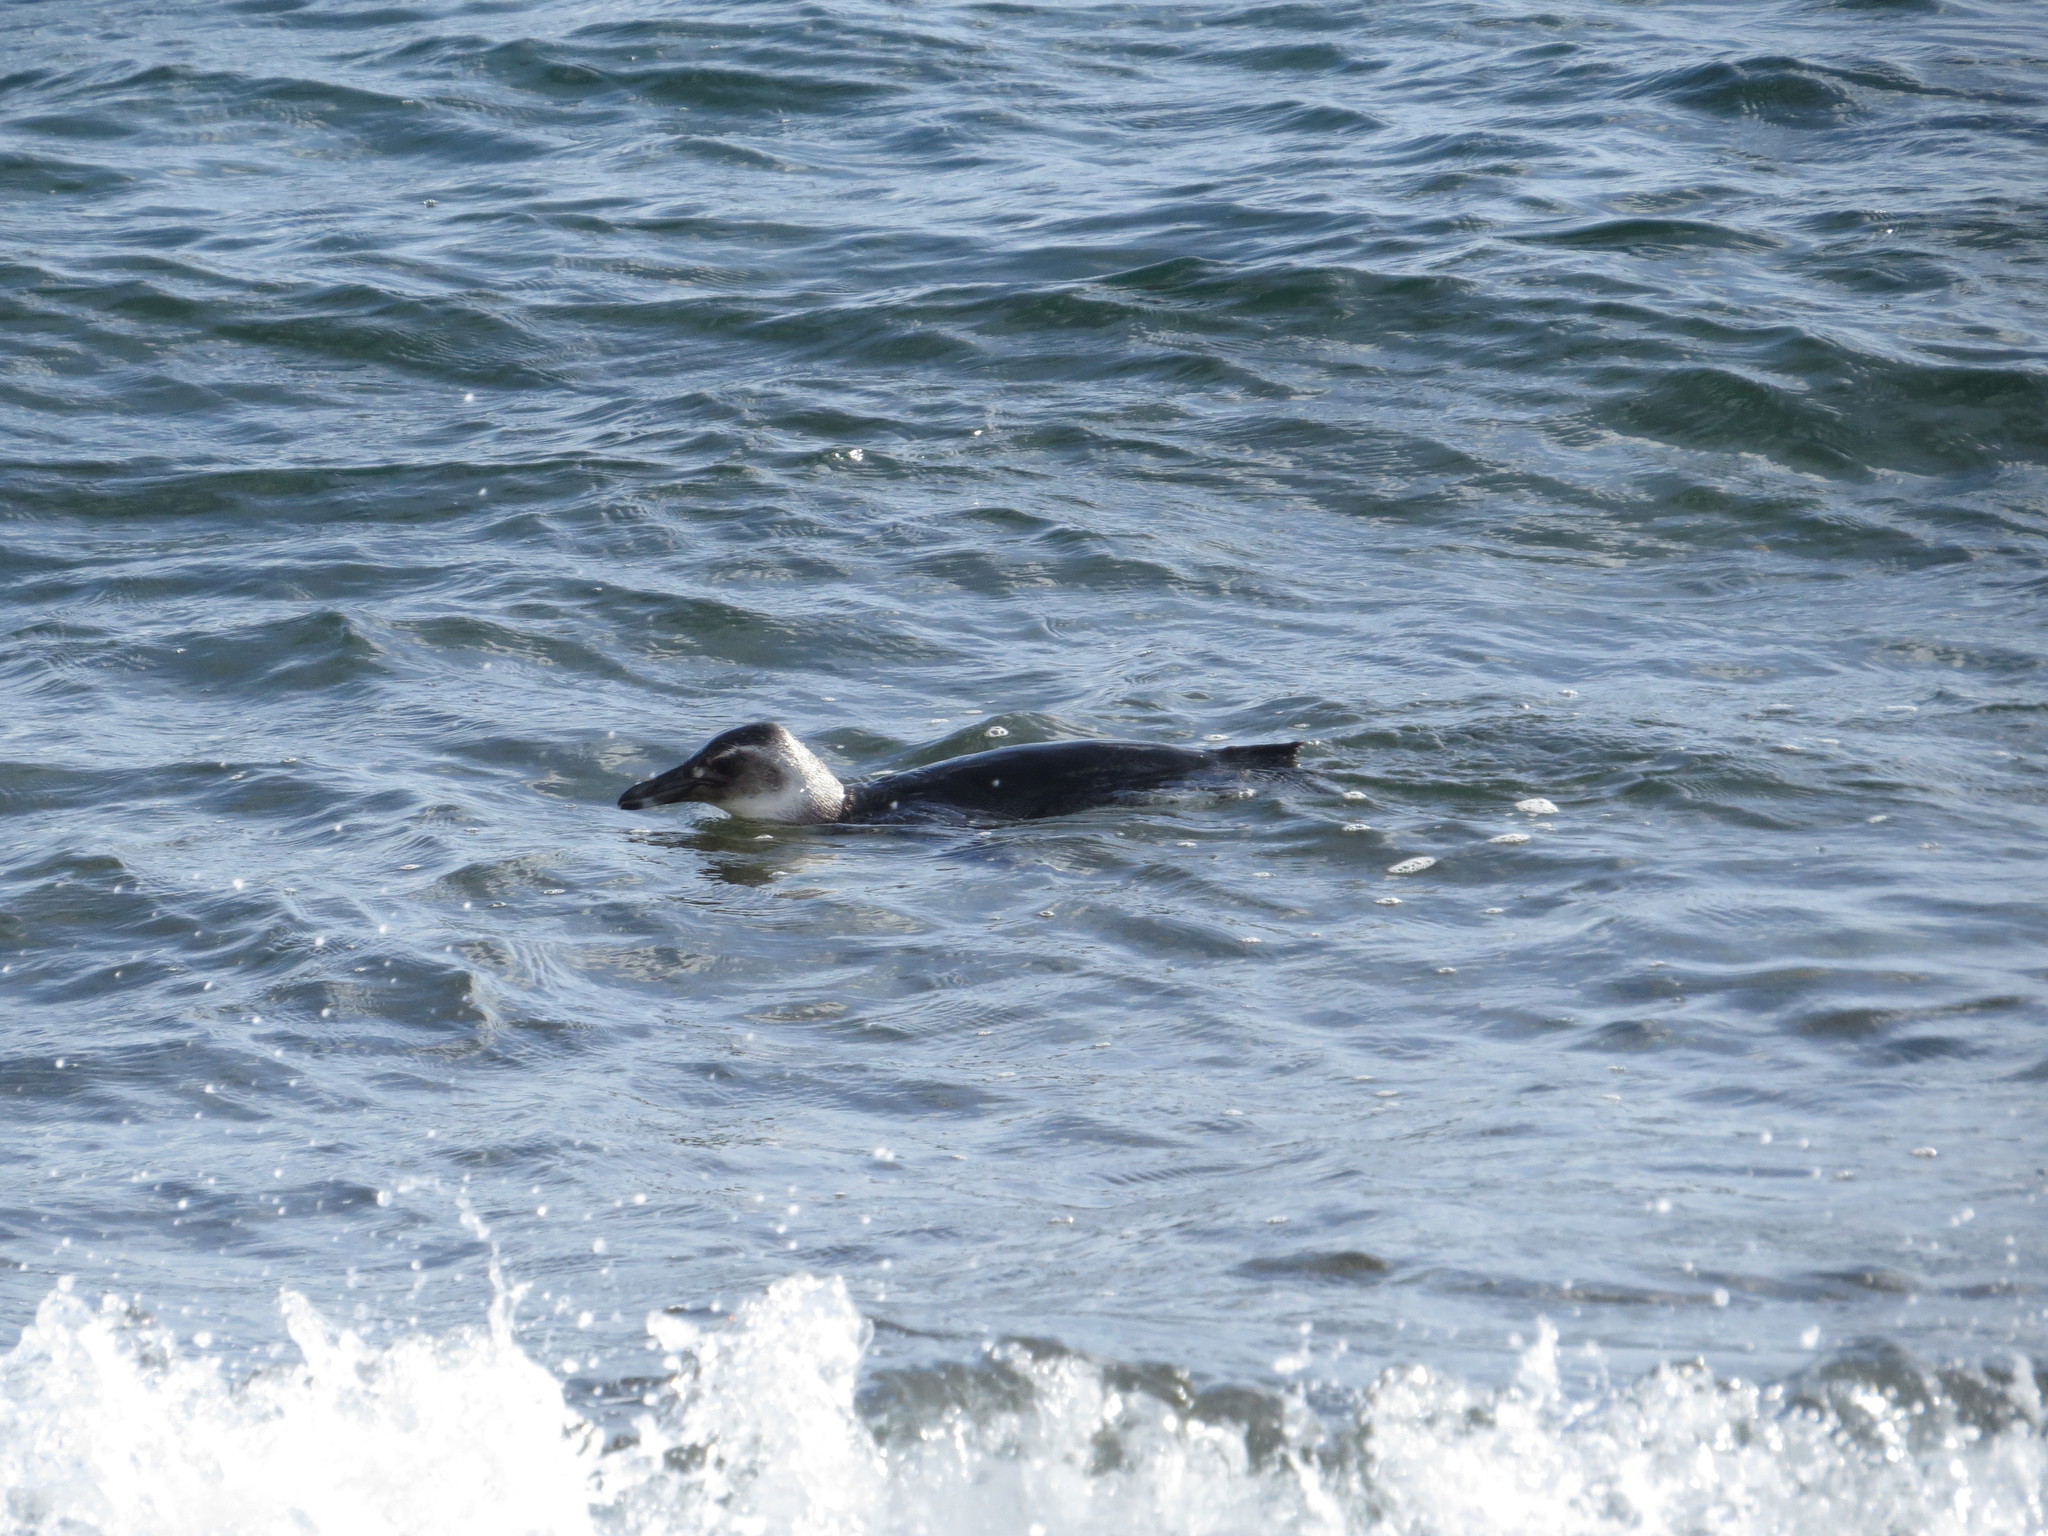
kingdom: Animalia
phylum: Chordata
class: Aves
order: Sphenisciformes
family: Spheniscidae
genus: Spheniscus
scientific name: Spheniscus magellanicus
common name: Magellanic penguin
